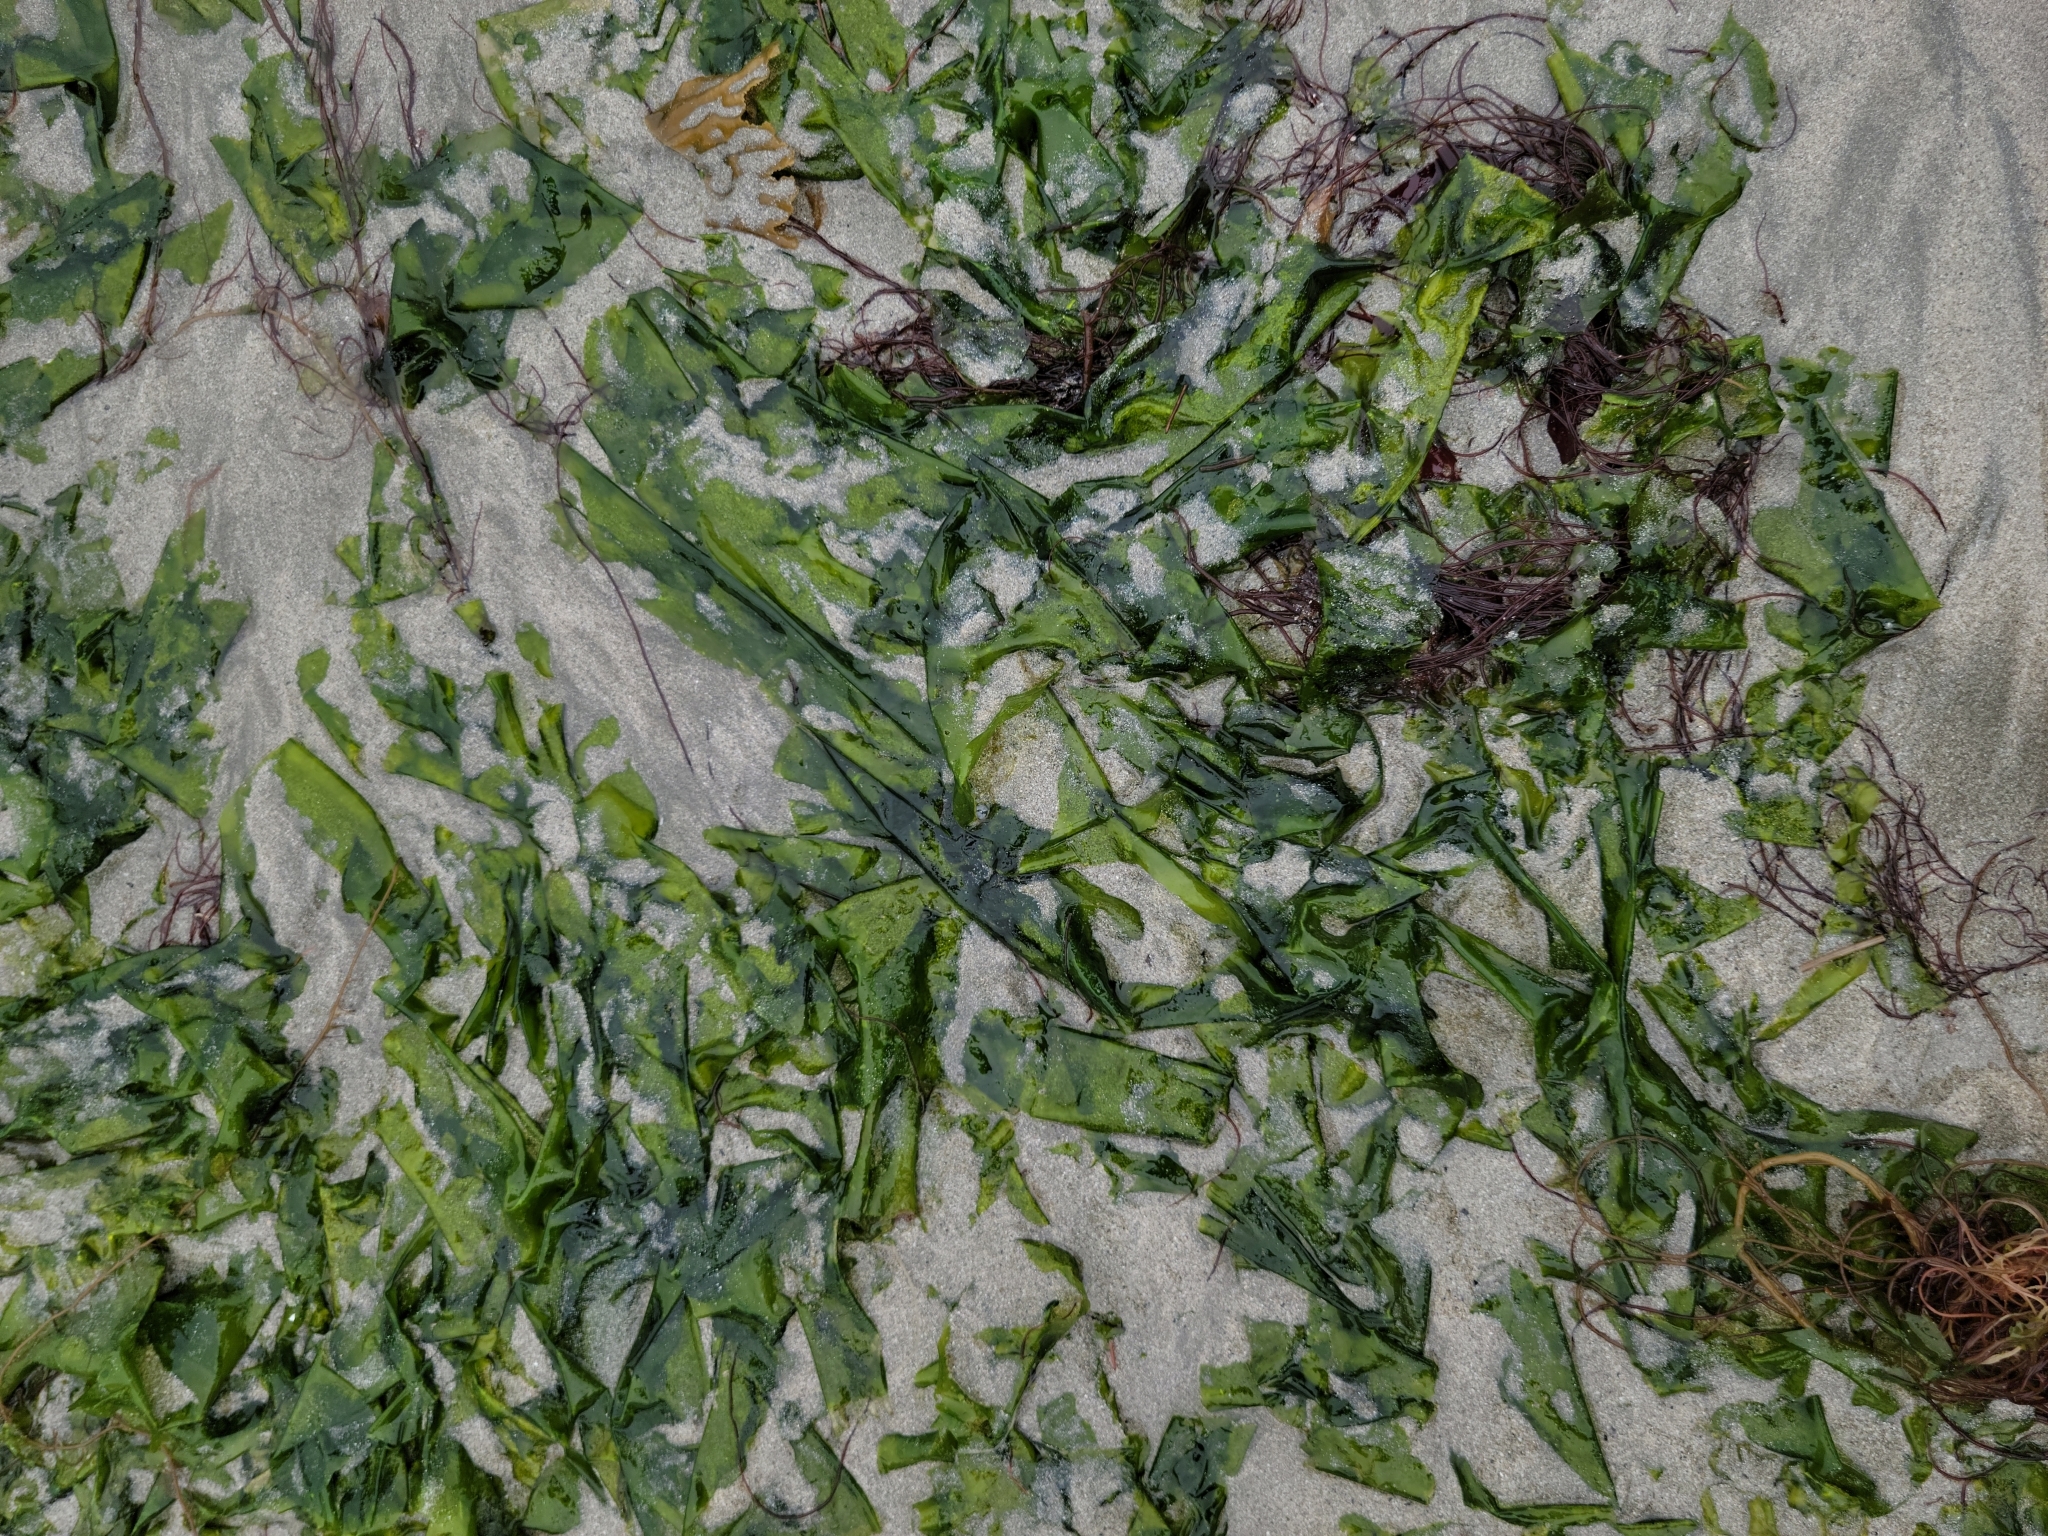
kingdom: Plantae
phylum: Chlorophyta
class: Ulvophyceae
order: Ulvales
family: Ulvaceae
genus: Ulva
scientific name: Ulva lactuca
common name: Sea lettuce
